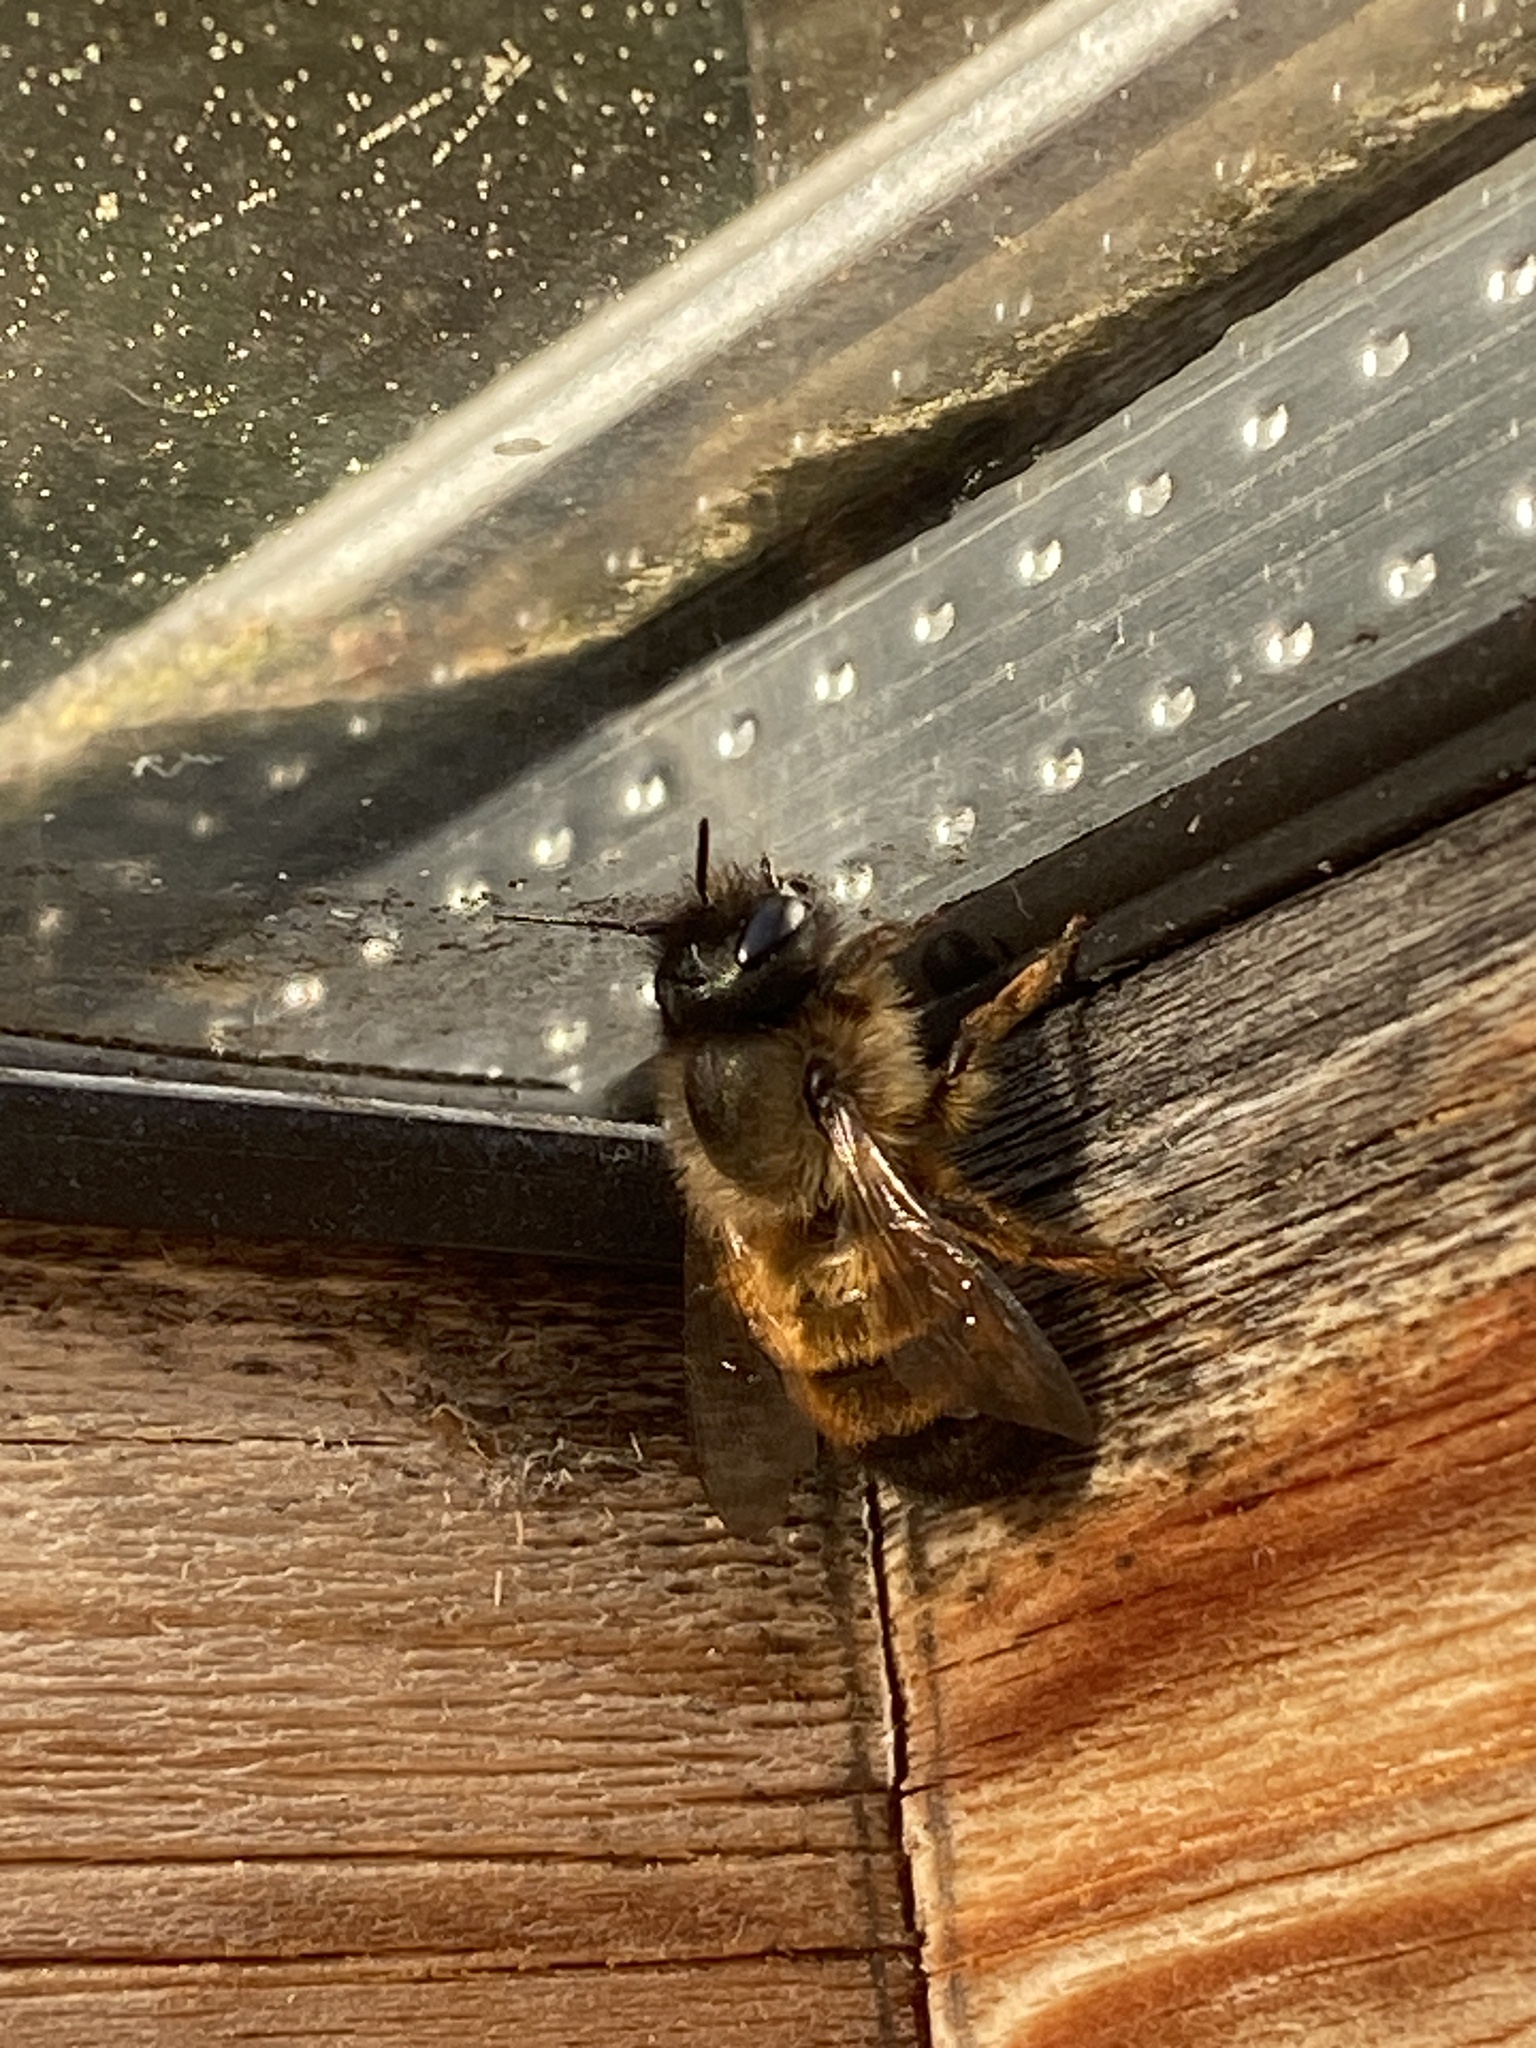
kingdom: Animalia
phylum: Arthropoda
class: Insecta
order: Hymenoptera
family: Megachilidae
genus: Osmia
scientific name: Osmia bicornis
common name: Red mason bee
